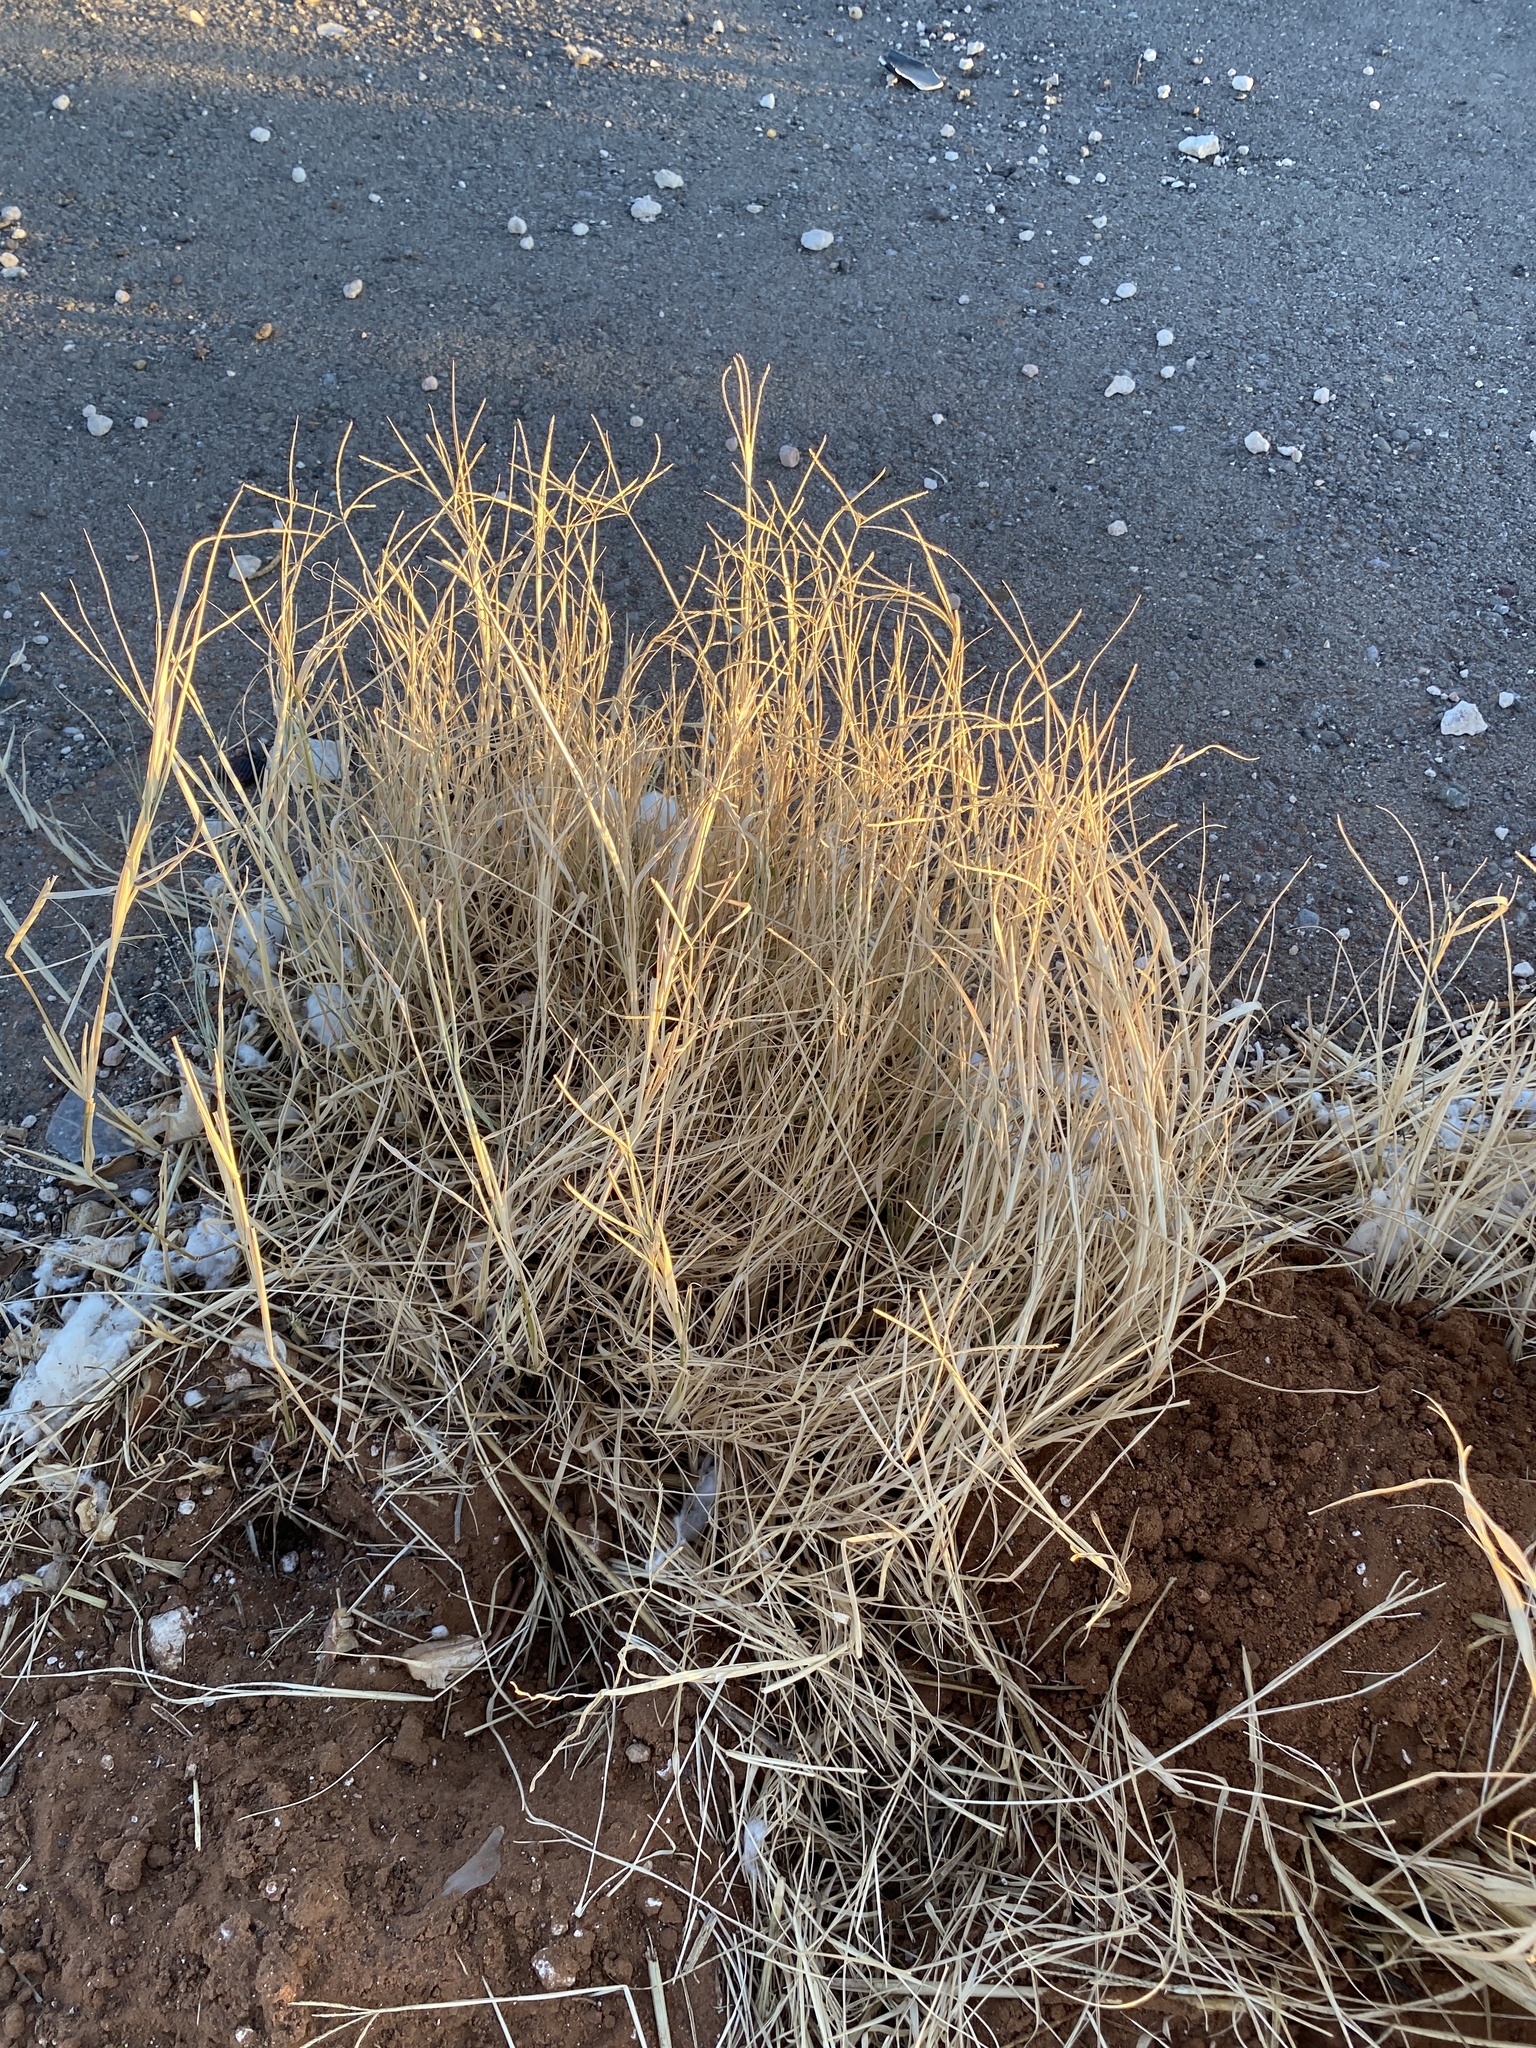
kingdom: Plantae
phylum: Tracheophyta
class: Liliopsida
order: Poales
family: Poaceae
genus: Cynodon
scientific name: Cynodon dactylon
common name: Bermuda grass
